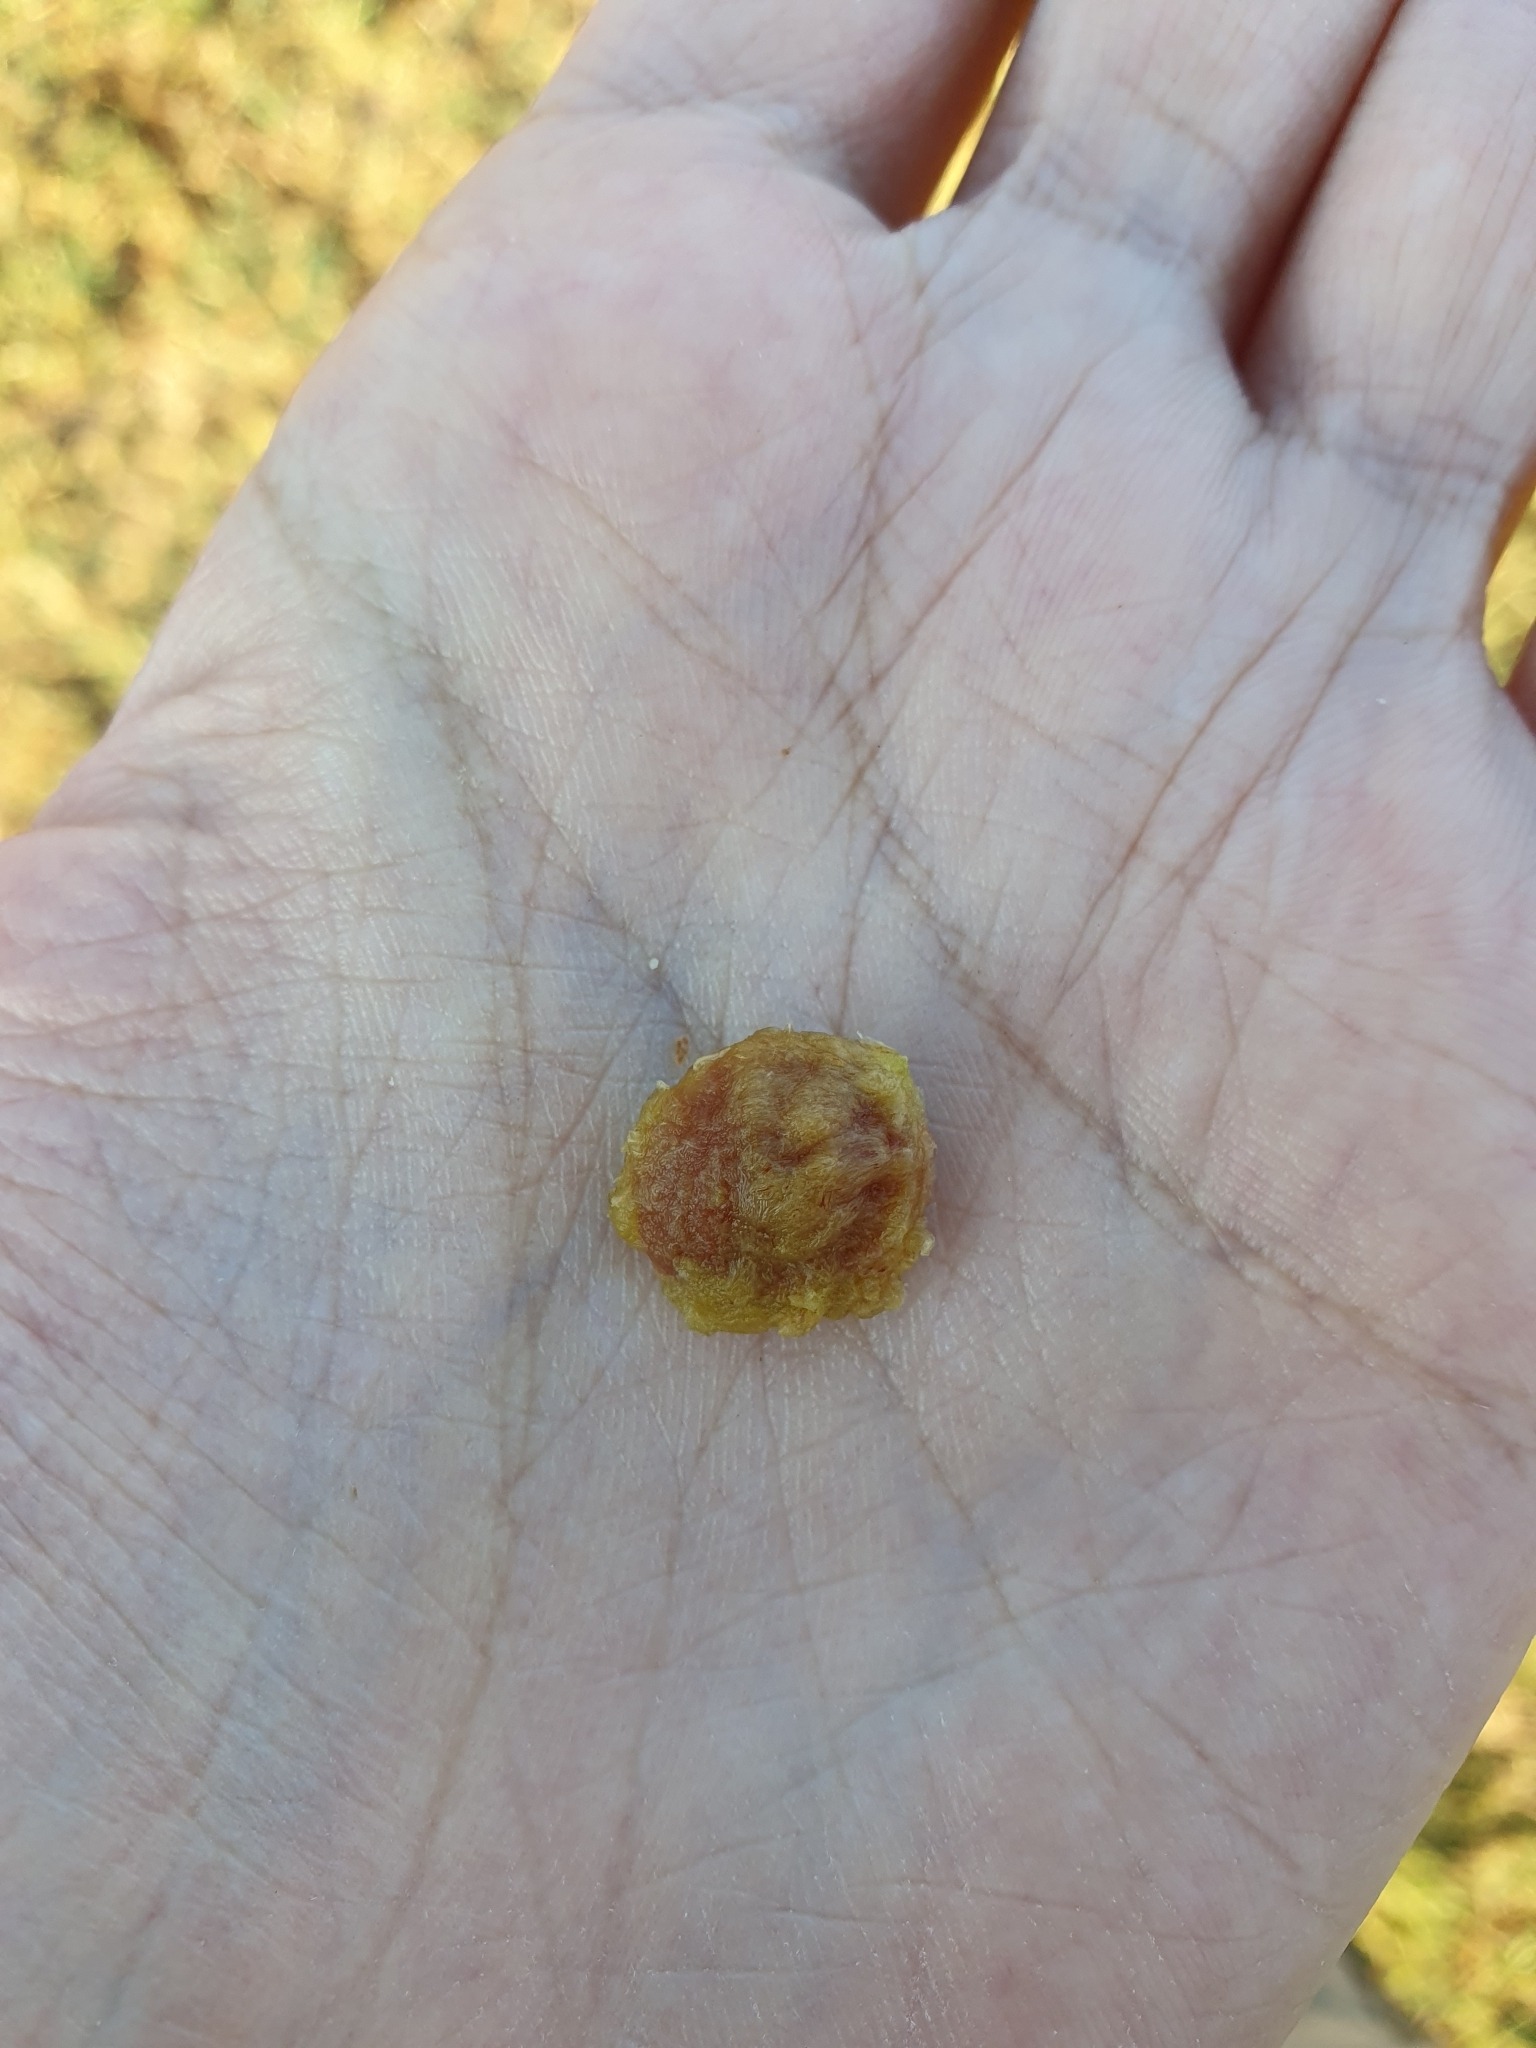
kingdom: Plantae
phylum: Tracheophyta
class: Magnoliopsida
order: Rosales
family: Rosaceae
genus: Prunus
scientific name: Prunus spinosa
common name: Blackthorn
